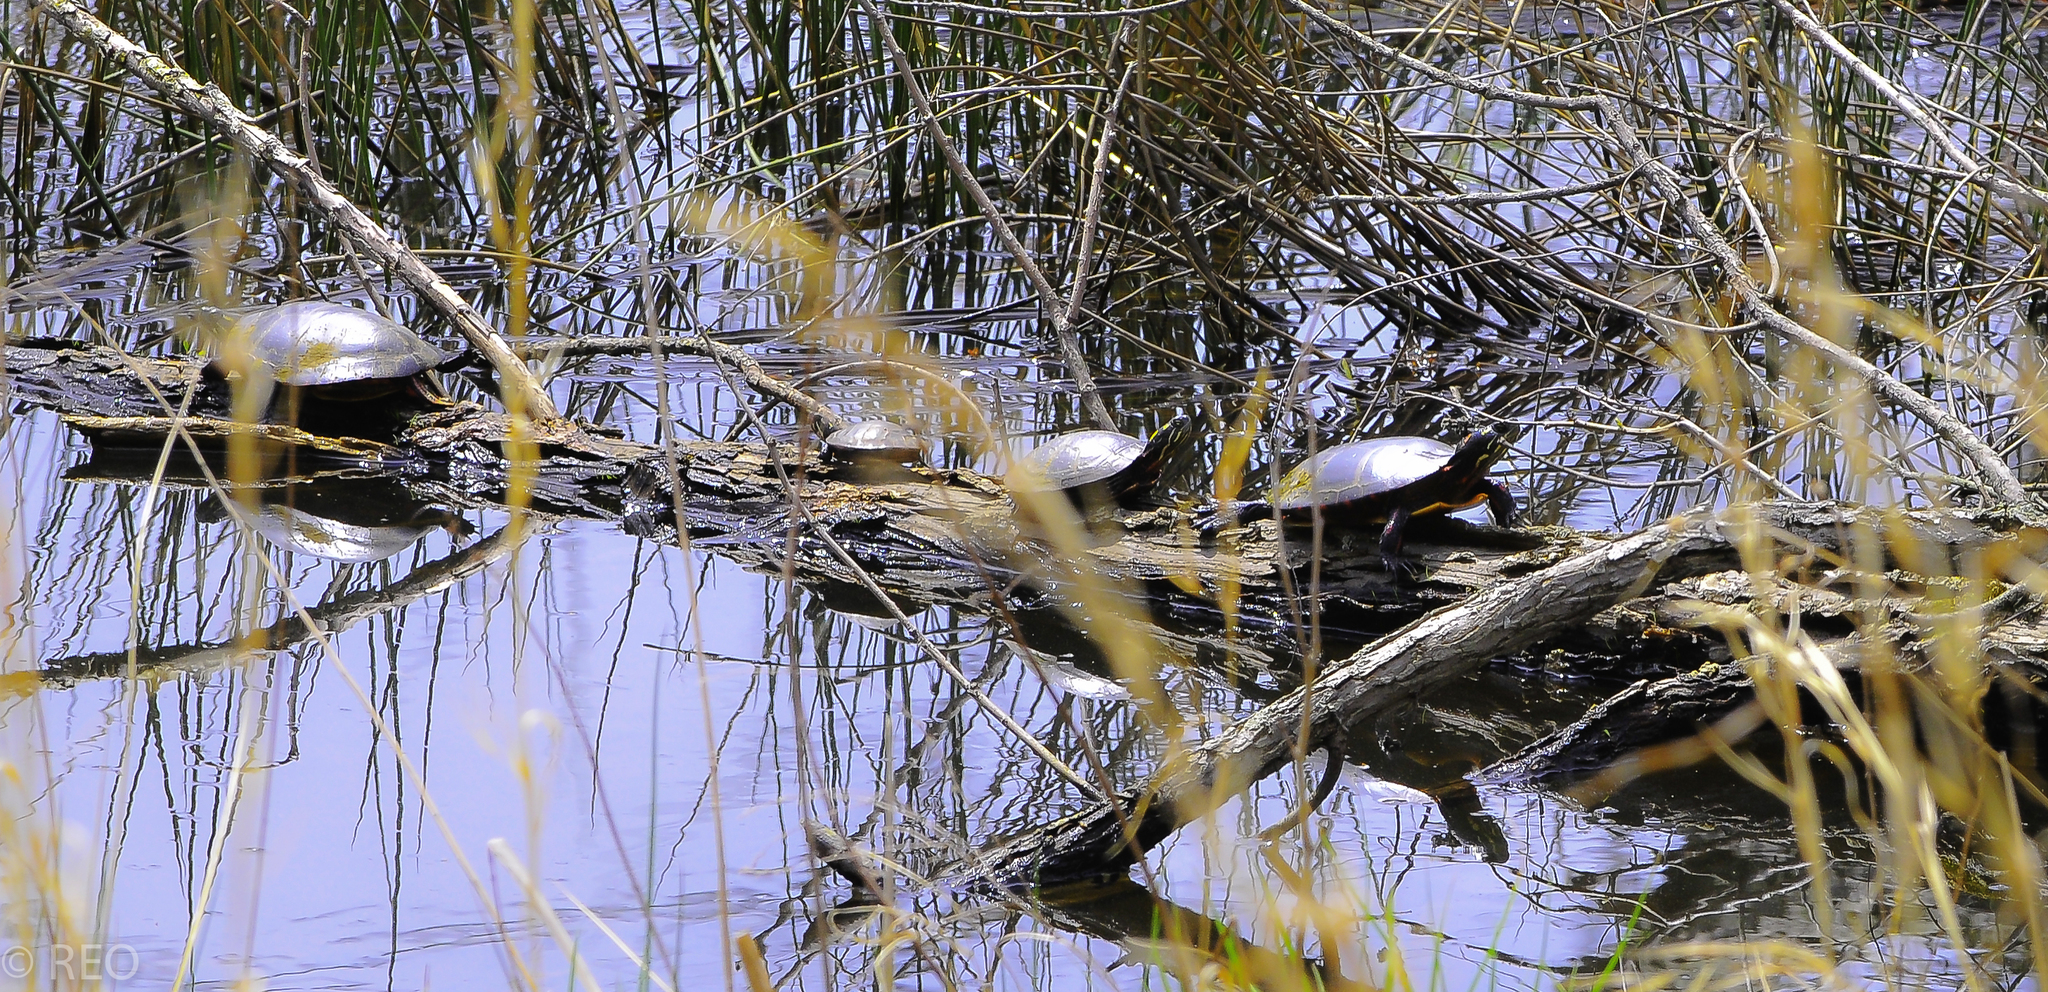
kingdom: Animalia
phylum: Chordata
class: Testudines
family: Emydidae
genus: Chrysemys
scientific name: Chrysemys picta
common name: Painted turtle
